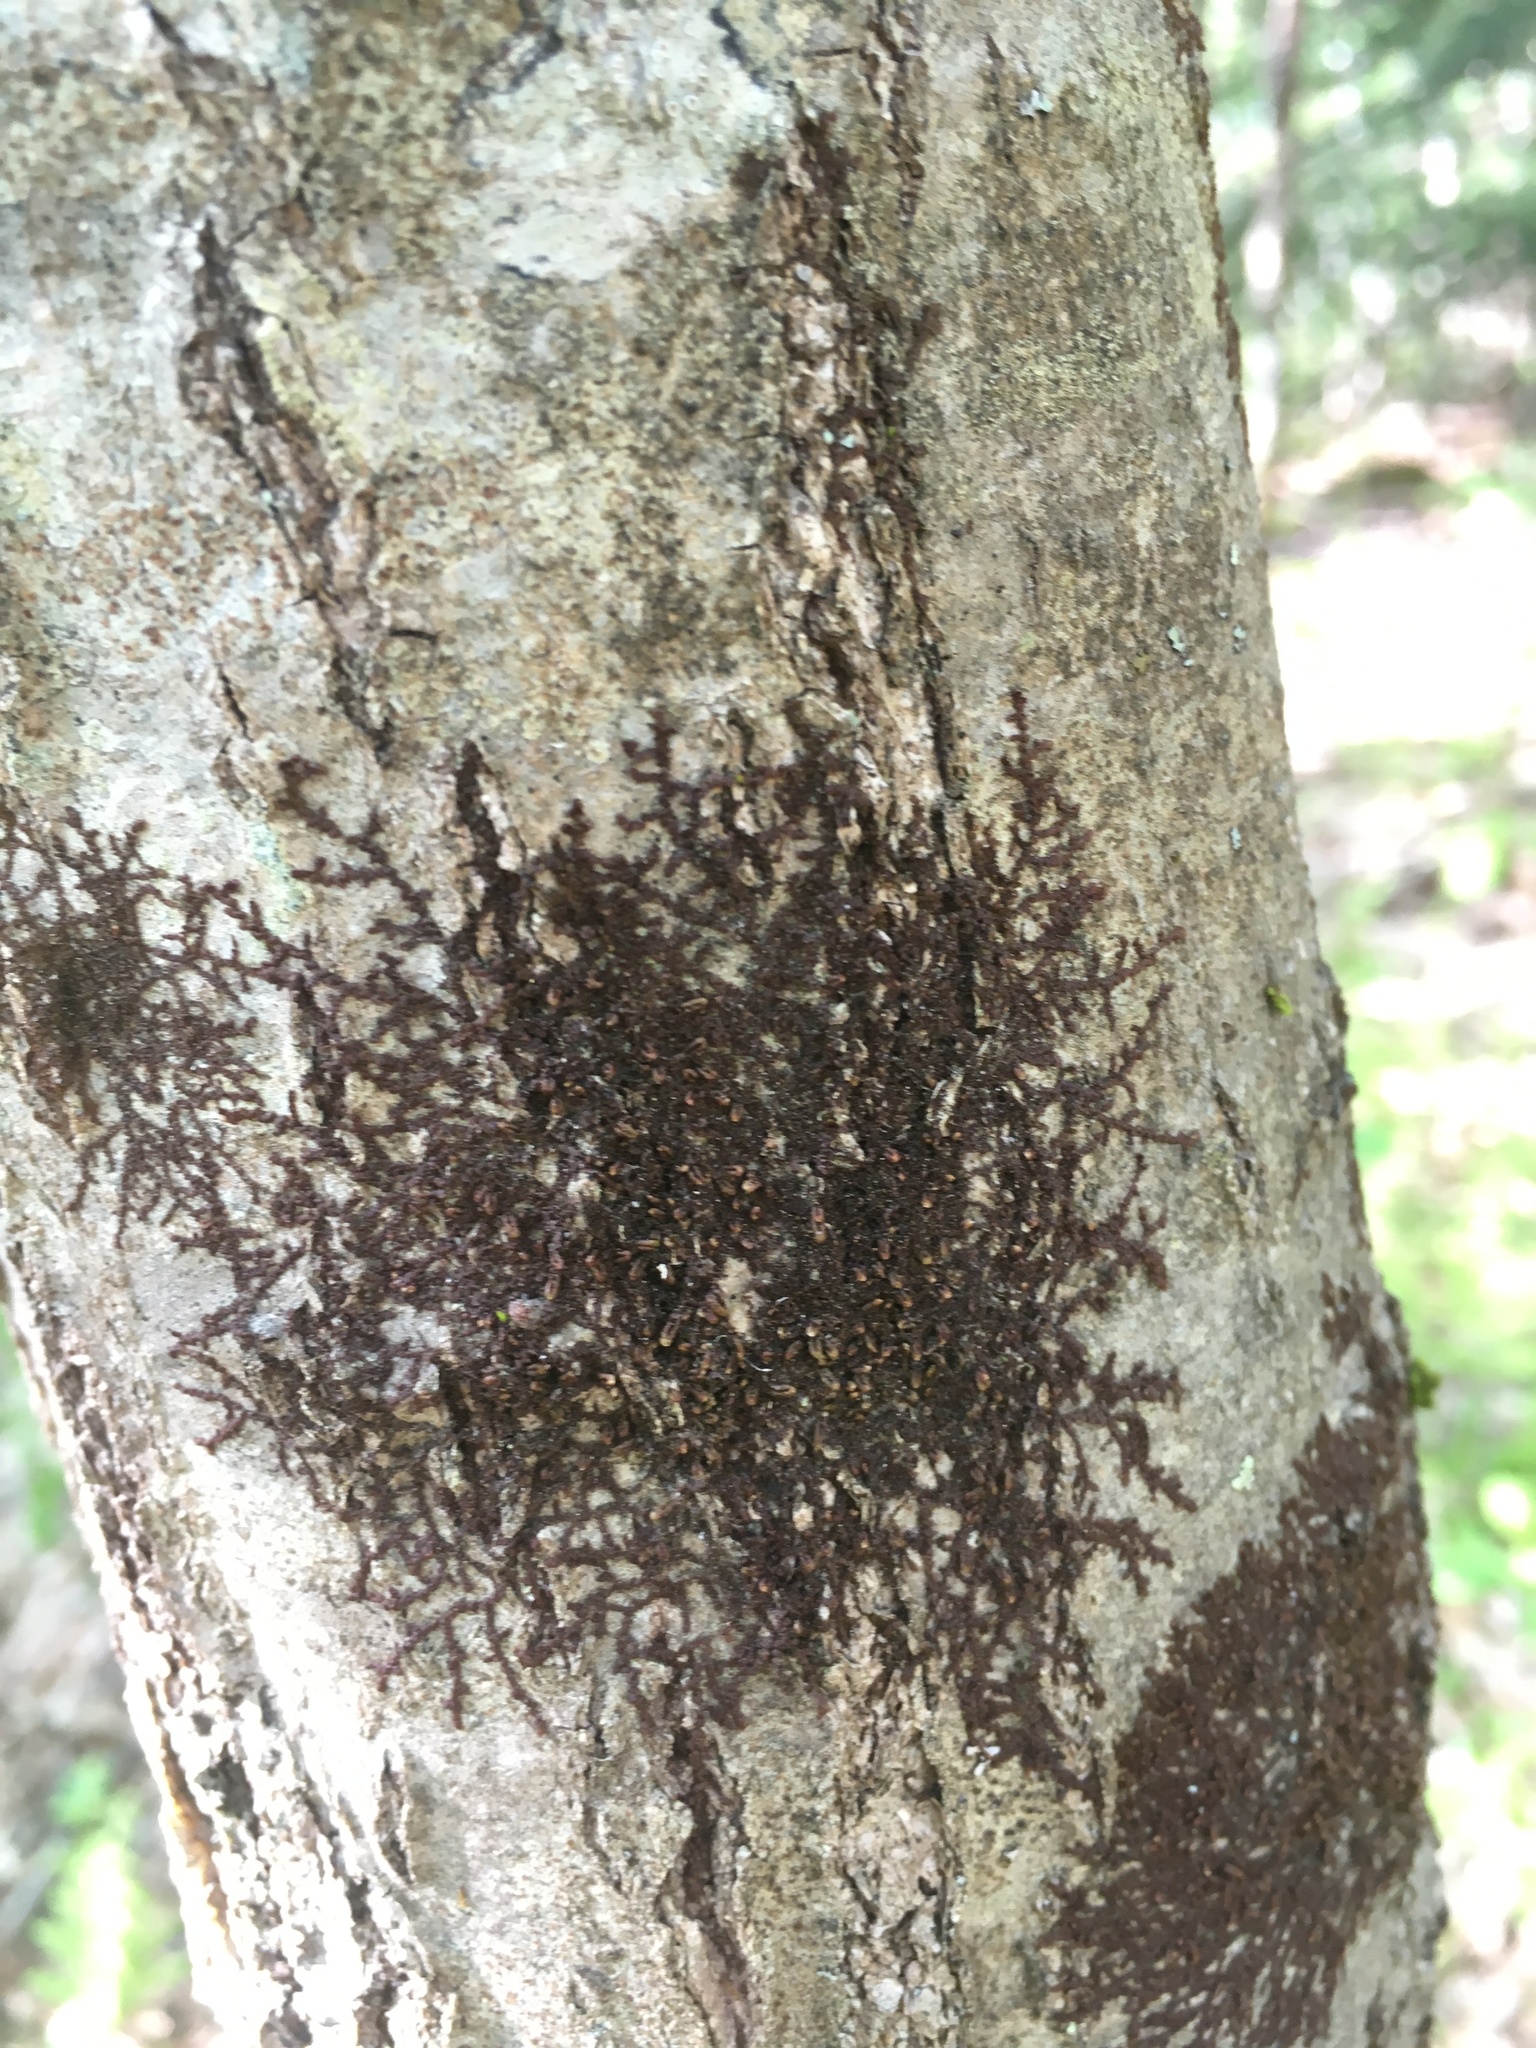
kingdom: Plantae
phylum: Marchantiophyta
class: Jungermanniopsida
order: Porellales
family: Frullaniaceae
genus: Frullania
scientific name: Frullania eboracensis
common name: New york scalewort
